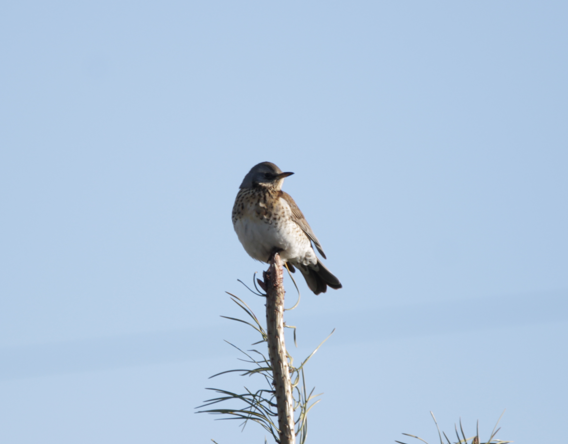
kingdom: Animalia
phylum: Chordata
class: Aves
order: Passeriformes
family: Turdidae
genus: Turdus
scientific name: Turdus pilaris
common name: Fieldfare
